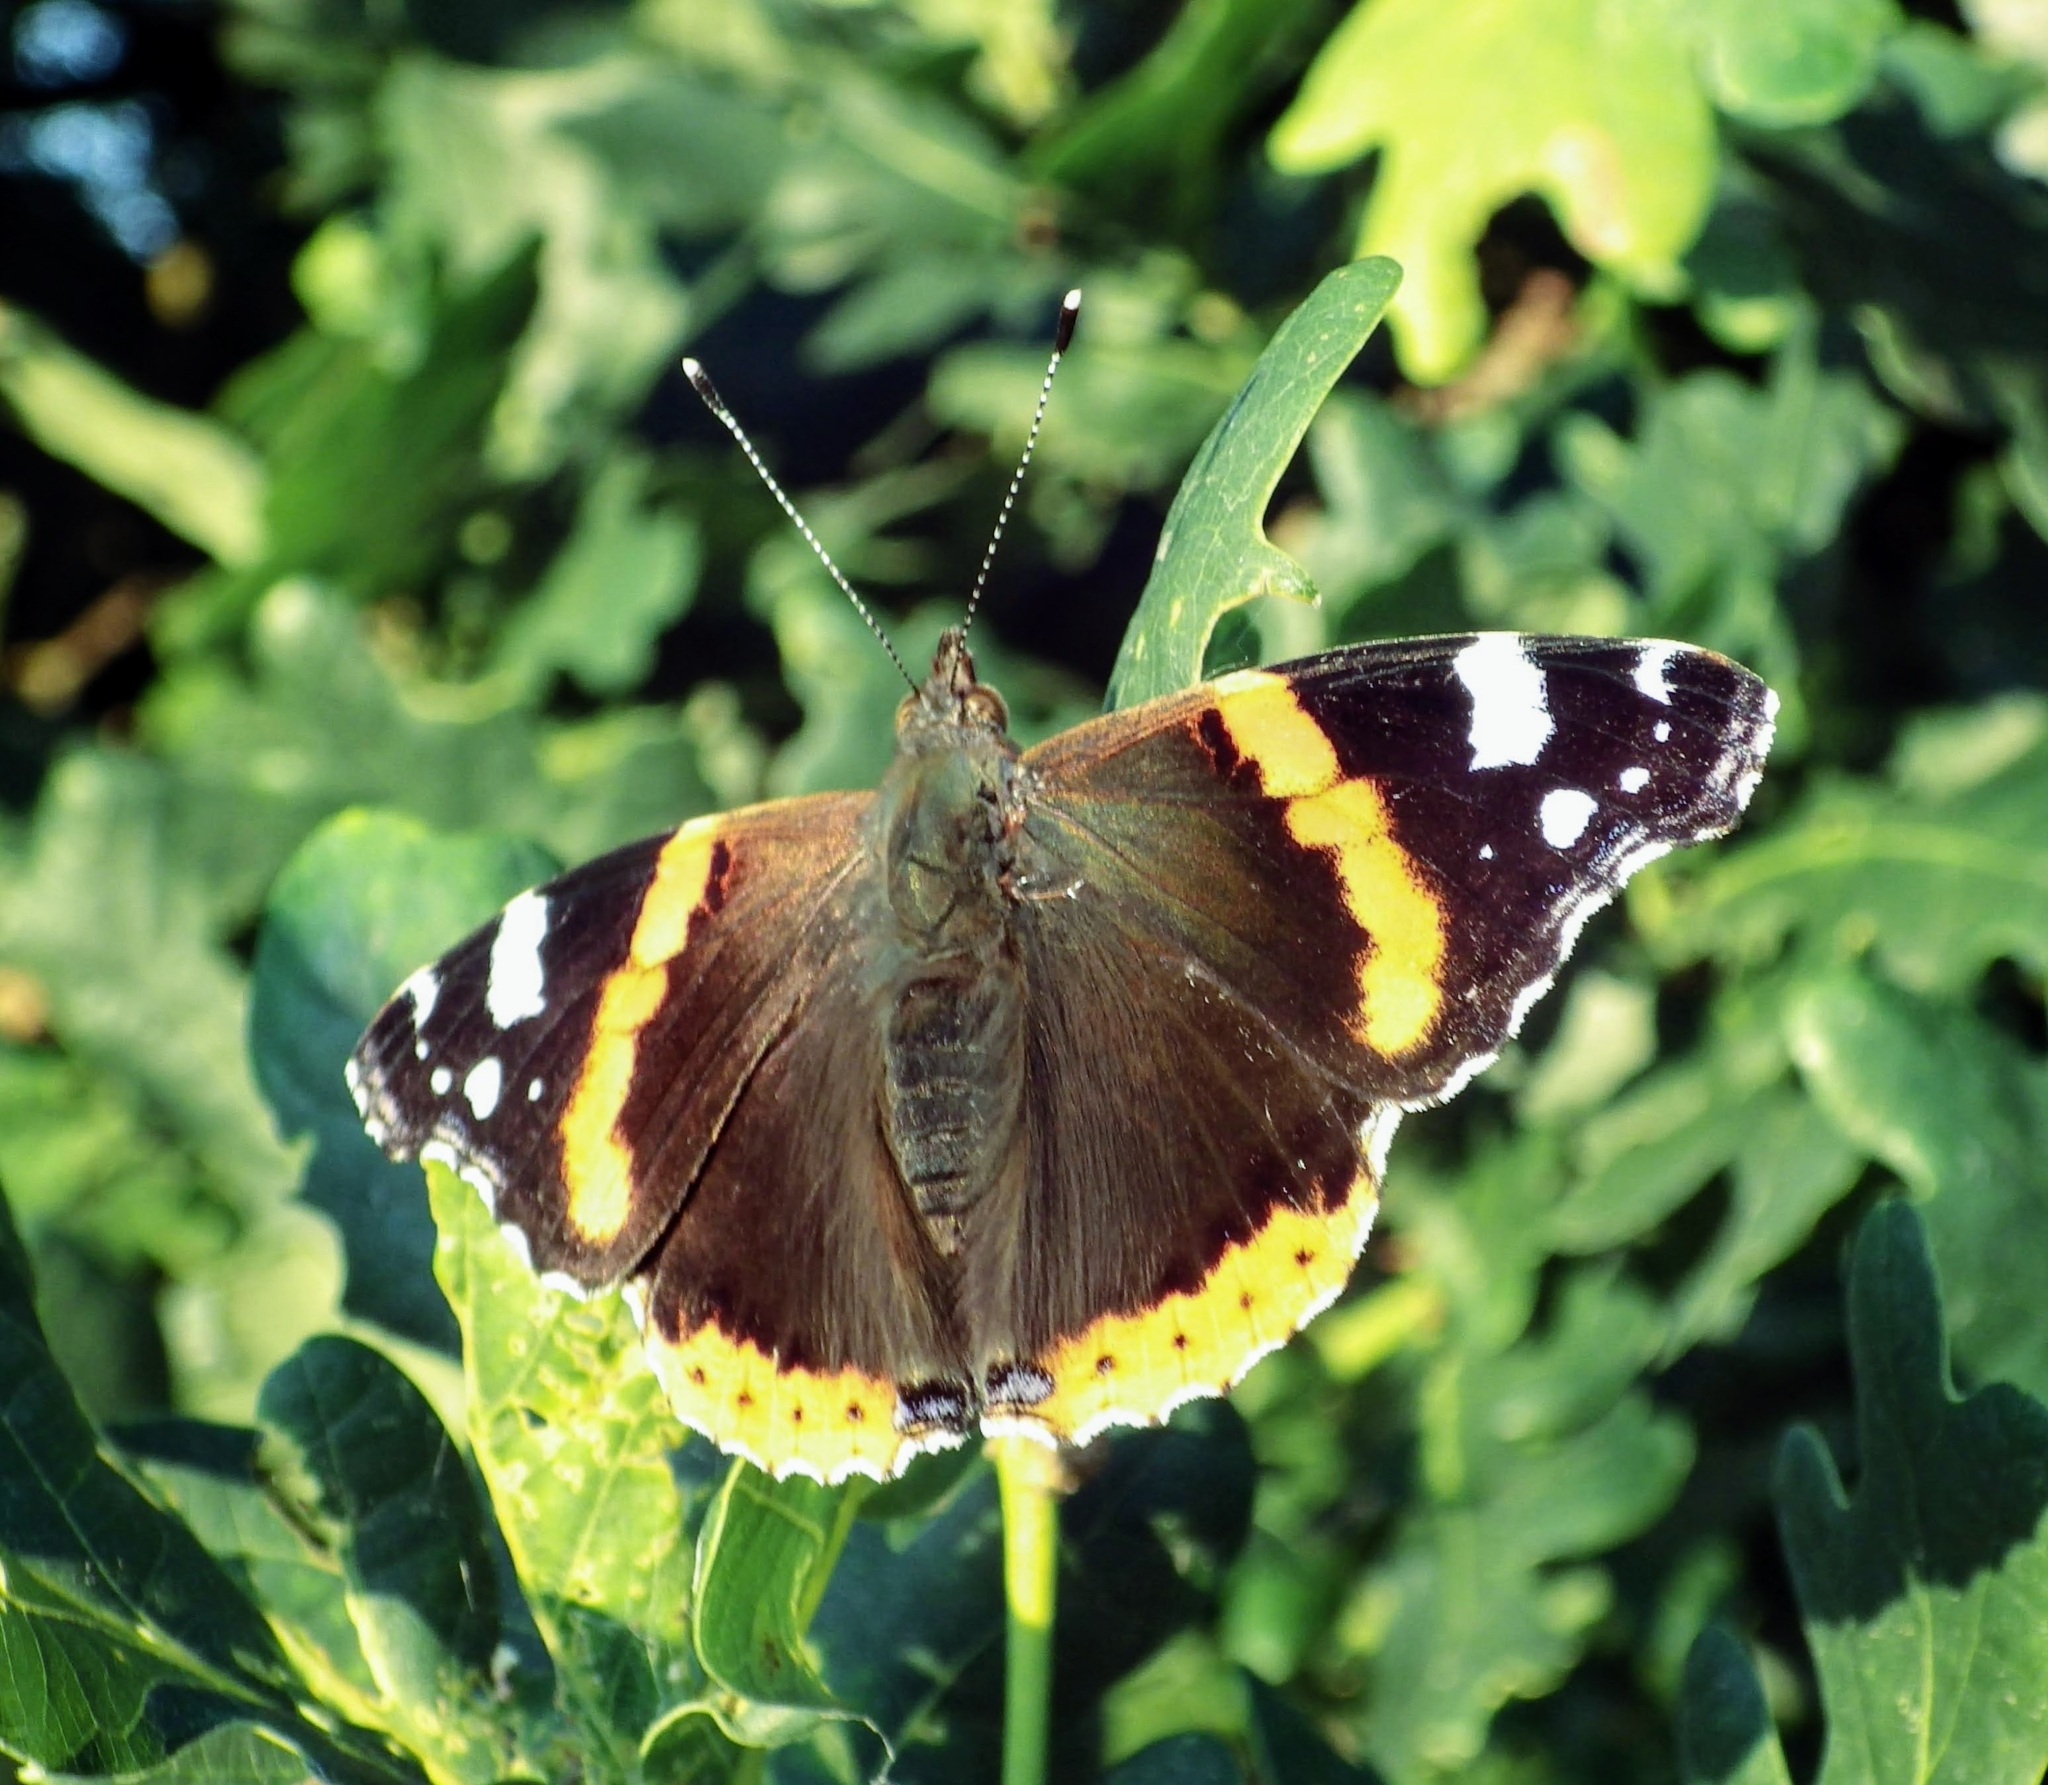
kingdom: Animalia
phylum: Arthropoda
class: Insecta
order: Lepidoptera
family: Nymphalidae
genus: Vanessa
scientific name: Vanessa atalanta
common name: Red admiral
